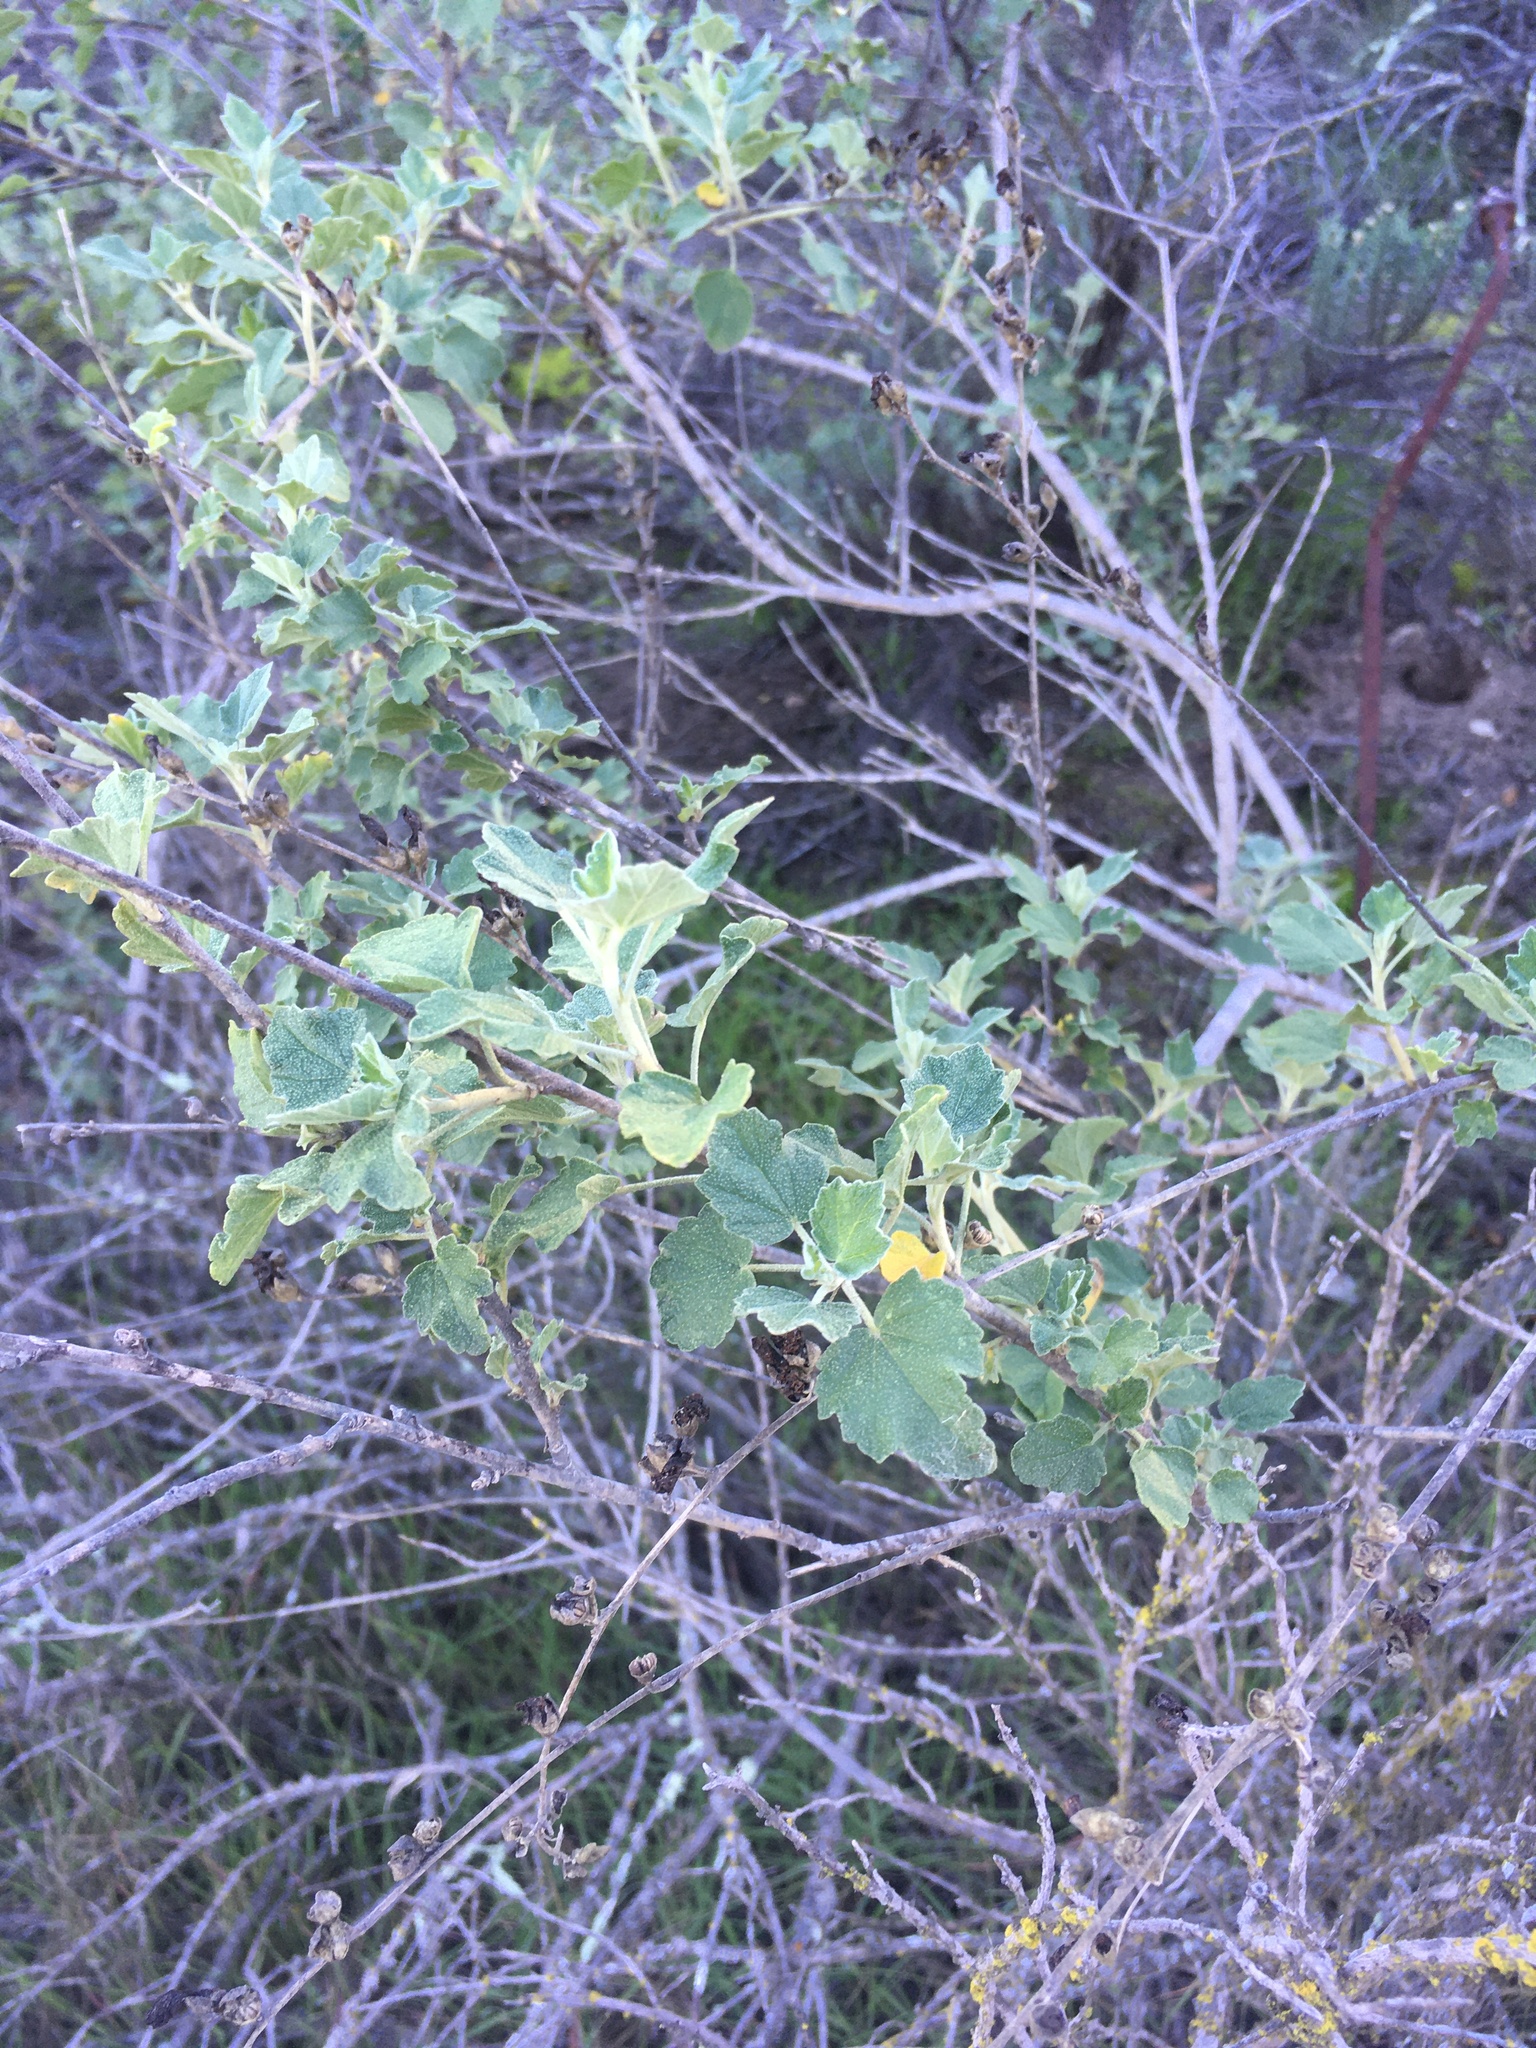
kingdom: Plantae
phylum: Tracheophyta
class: Magnoliopsida
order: Malvales
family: Malvaceae
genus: Malacothamnus
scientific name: Malacothamnus fasciculatus
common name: Sant cruz island bush-mallow
